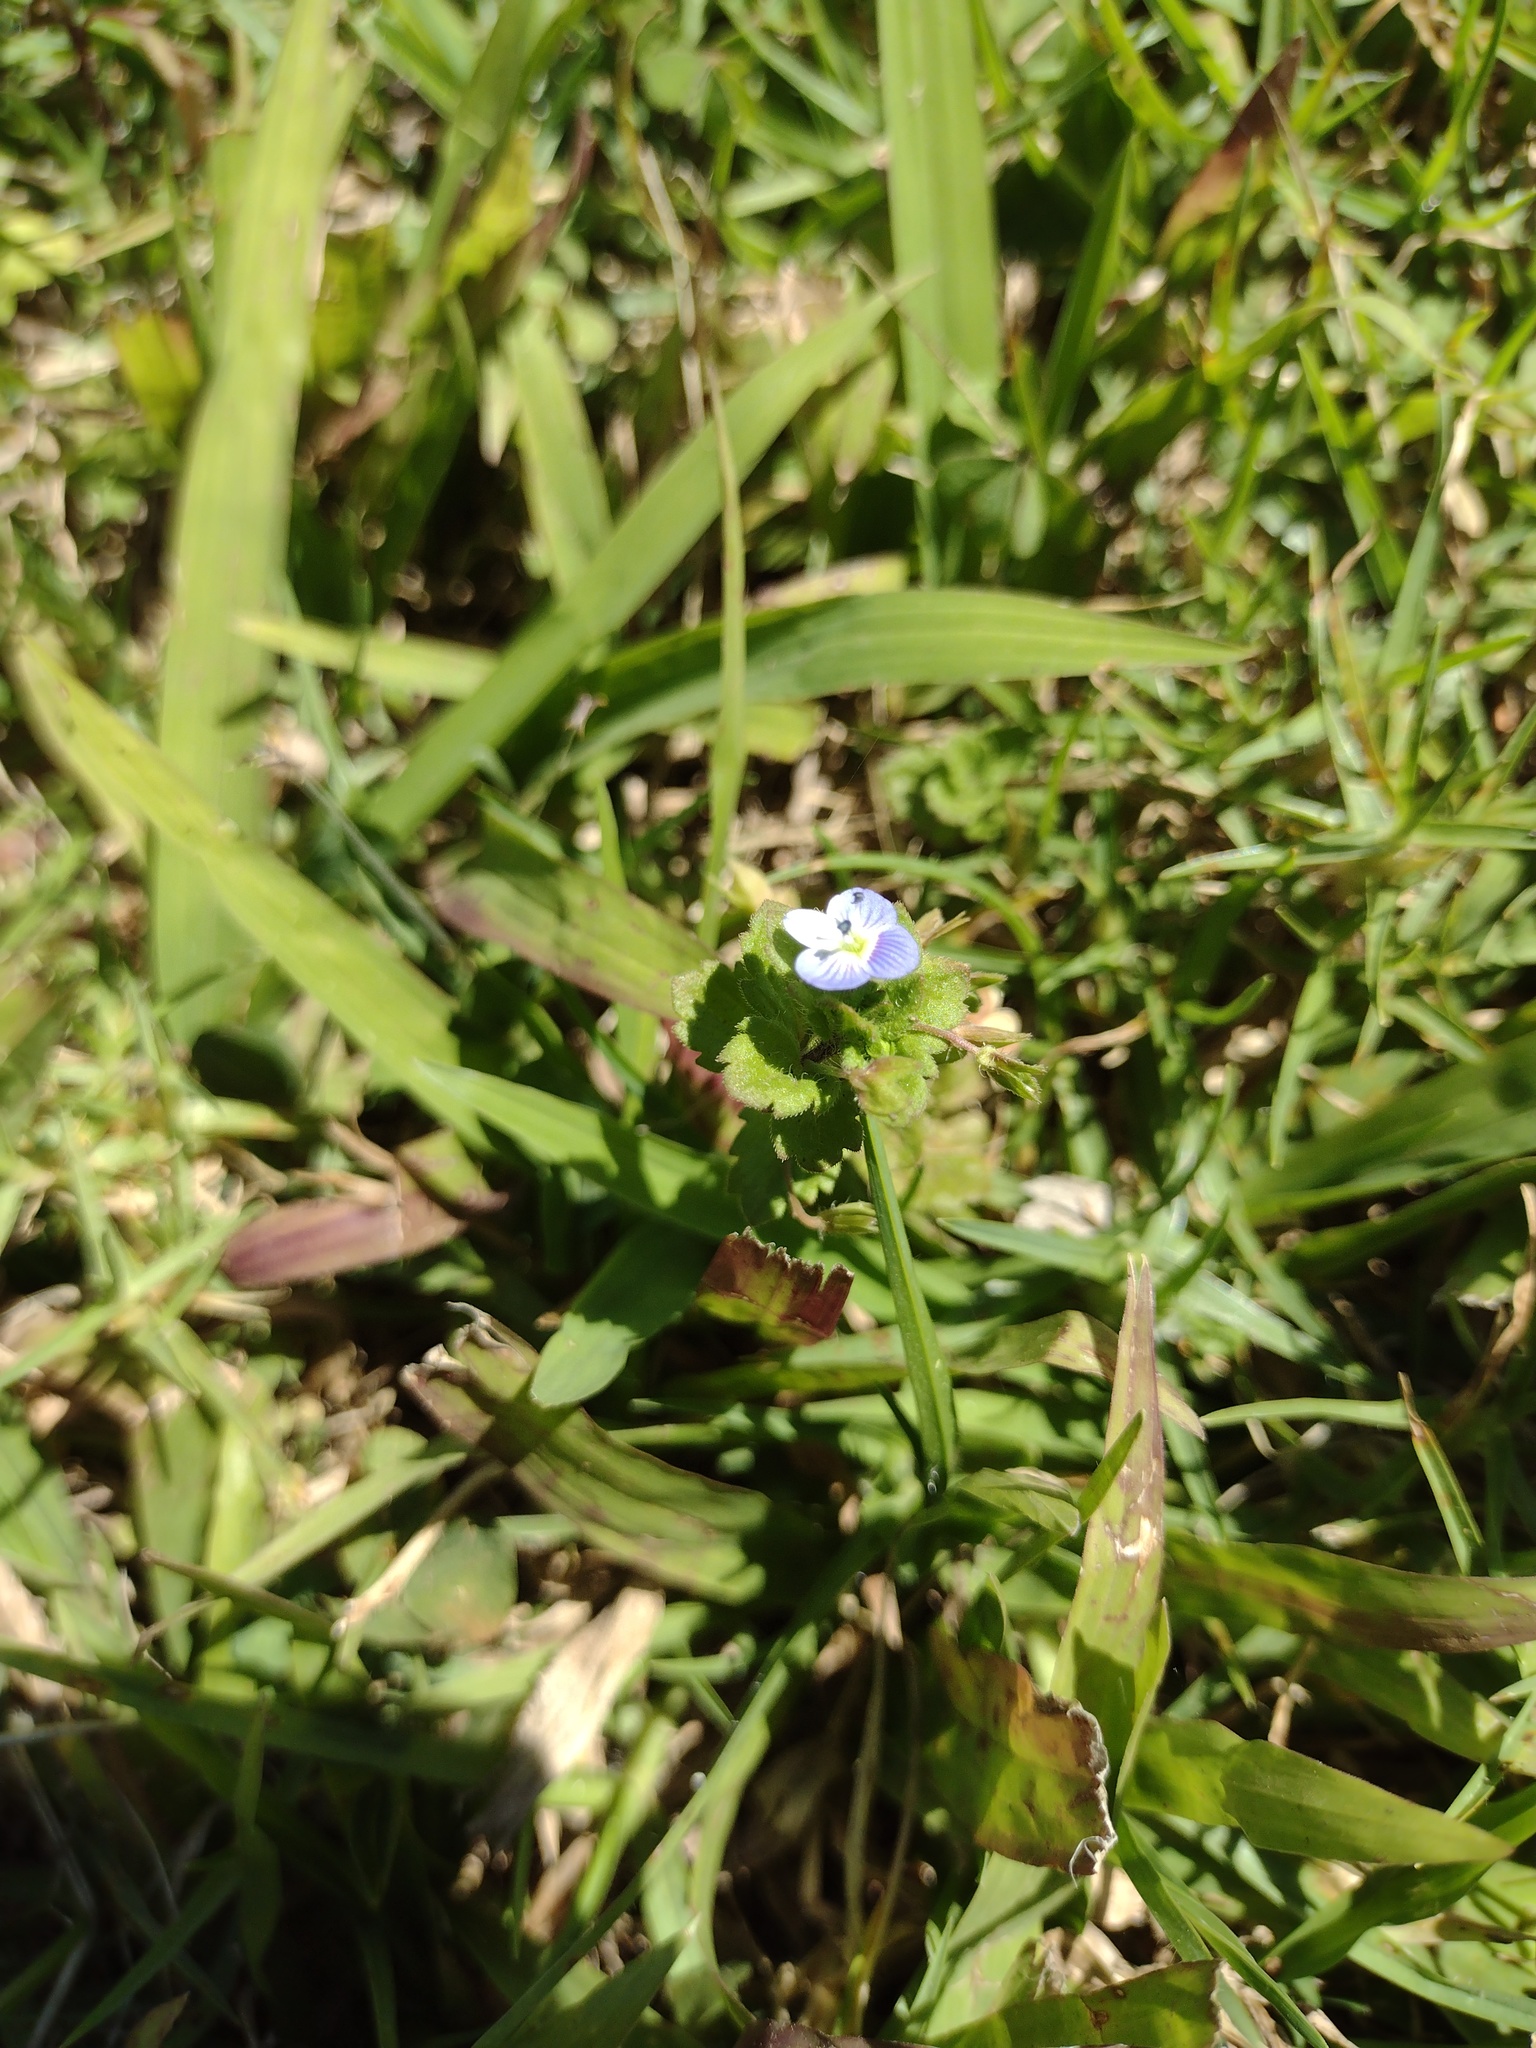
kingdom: Plantae
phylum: Tracheophyta
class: Magnoliopsida
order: Lamiales
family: Plantaginaceae
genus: Veronica
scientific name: Veronica persica
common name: Common field-speedwell
